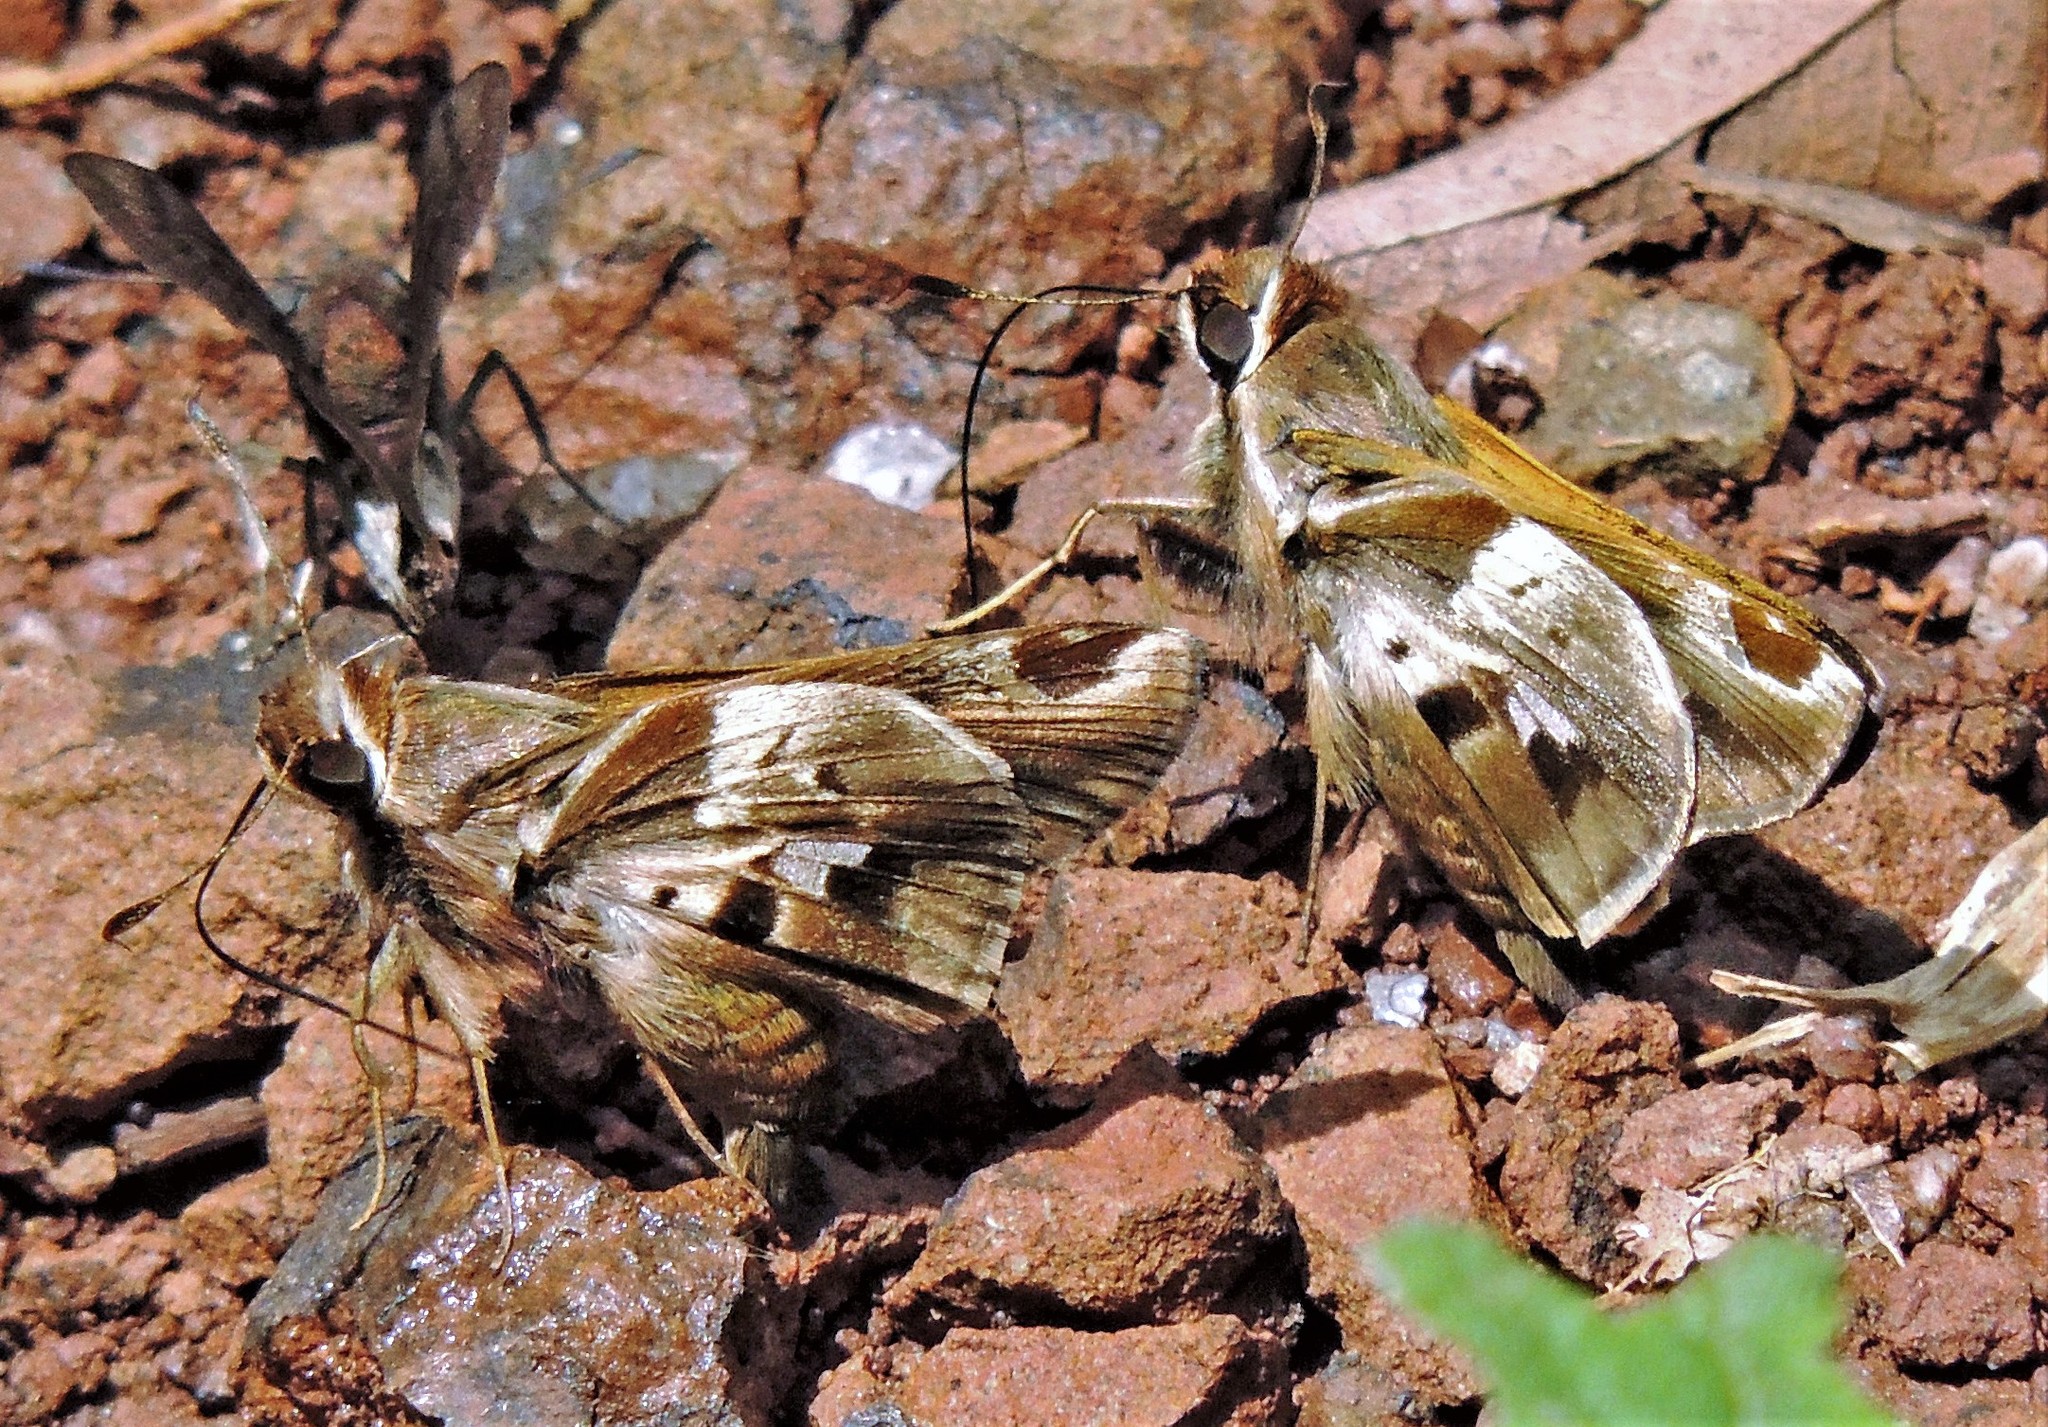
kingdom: Animalia
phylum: Arthropoda
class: Insecta
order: Lepidoptera
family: Hesperiidae
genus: Thespieus
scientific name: Thespieus ethemides
